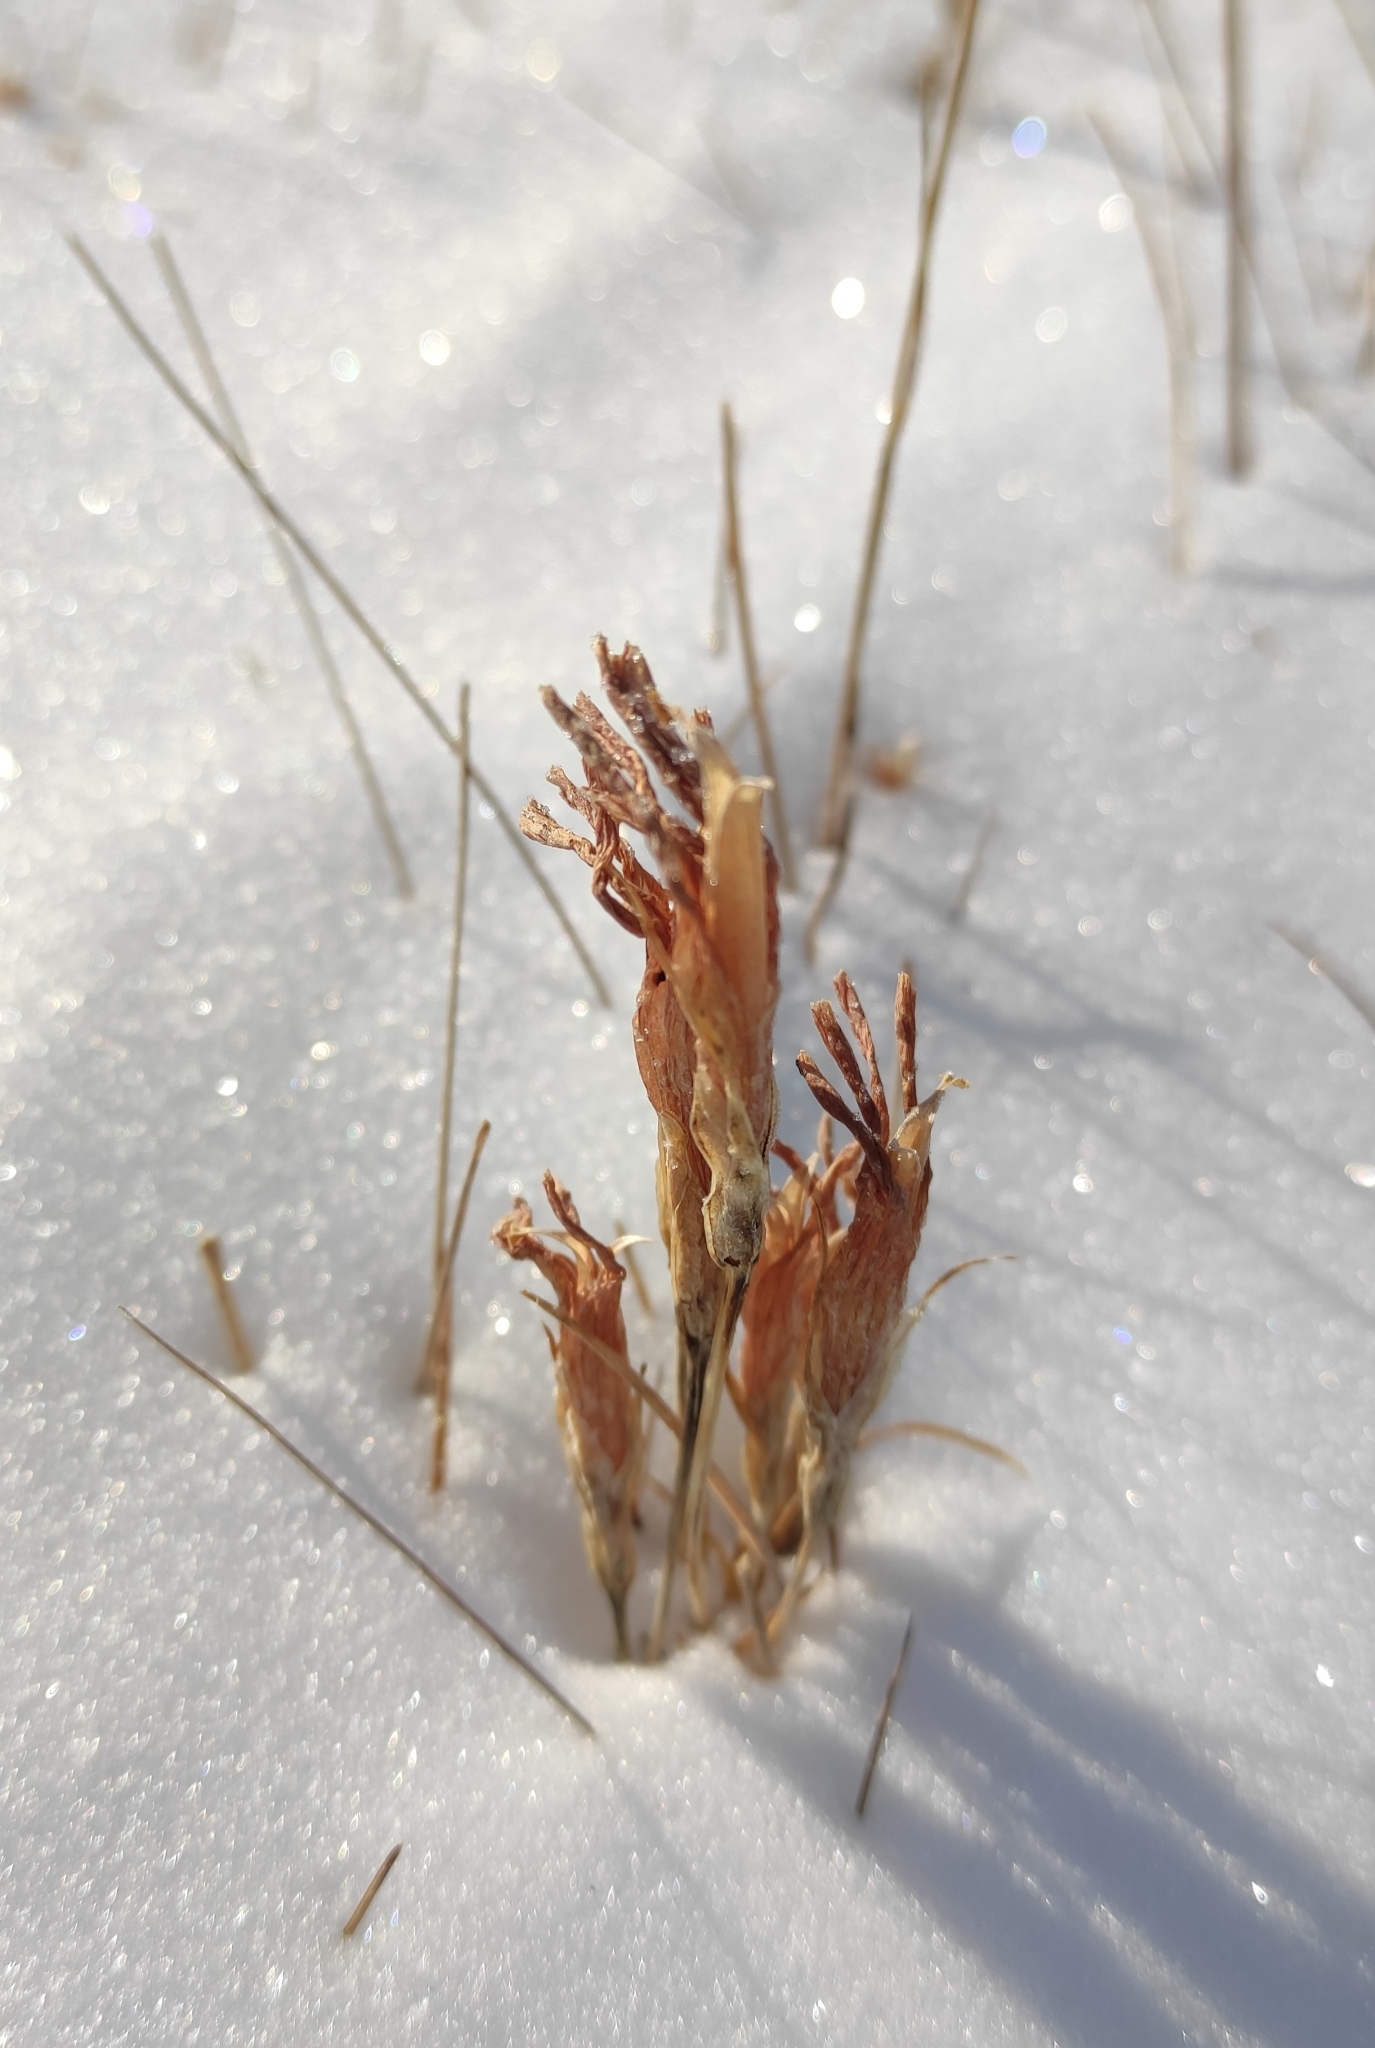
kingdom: Plantae
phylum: Tracheophyta
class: Magnoliopsida
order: Gentianales
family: Gentianaceae
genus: Gentianopsis
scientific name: Gentianopsis barbata
